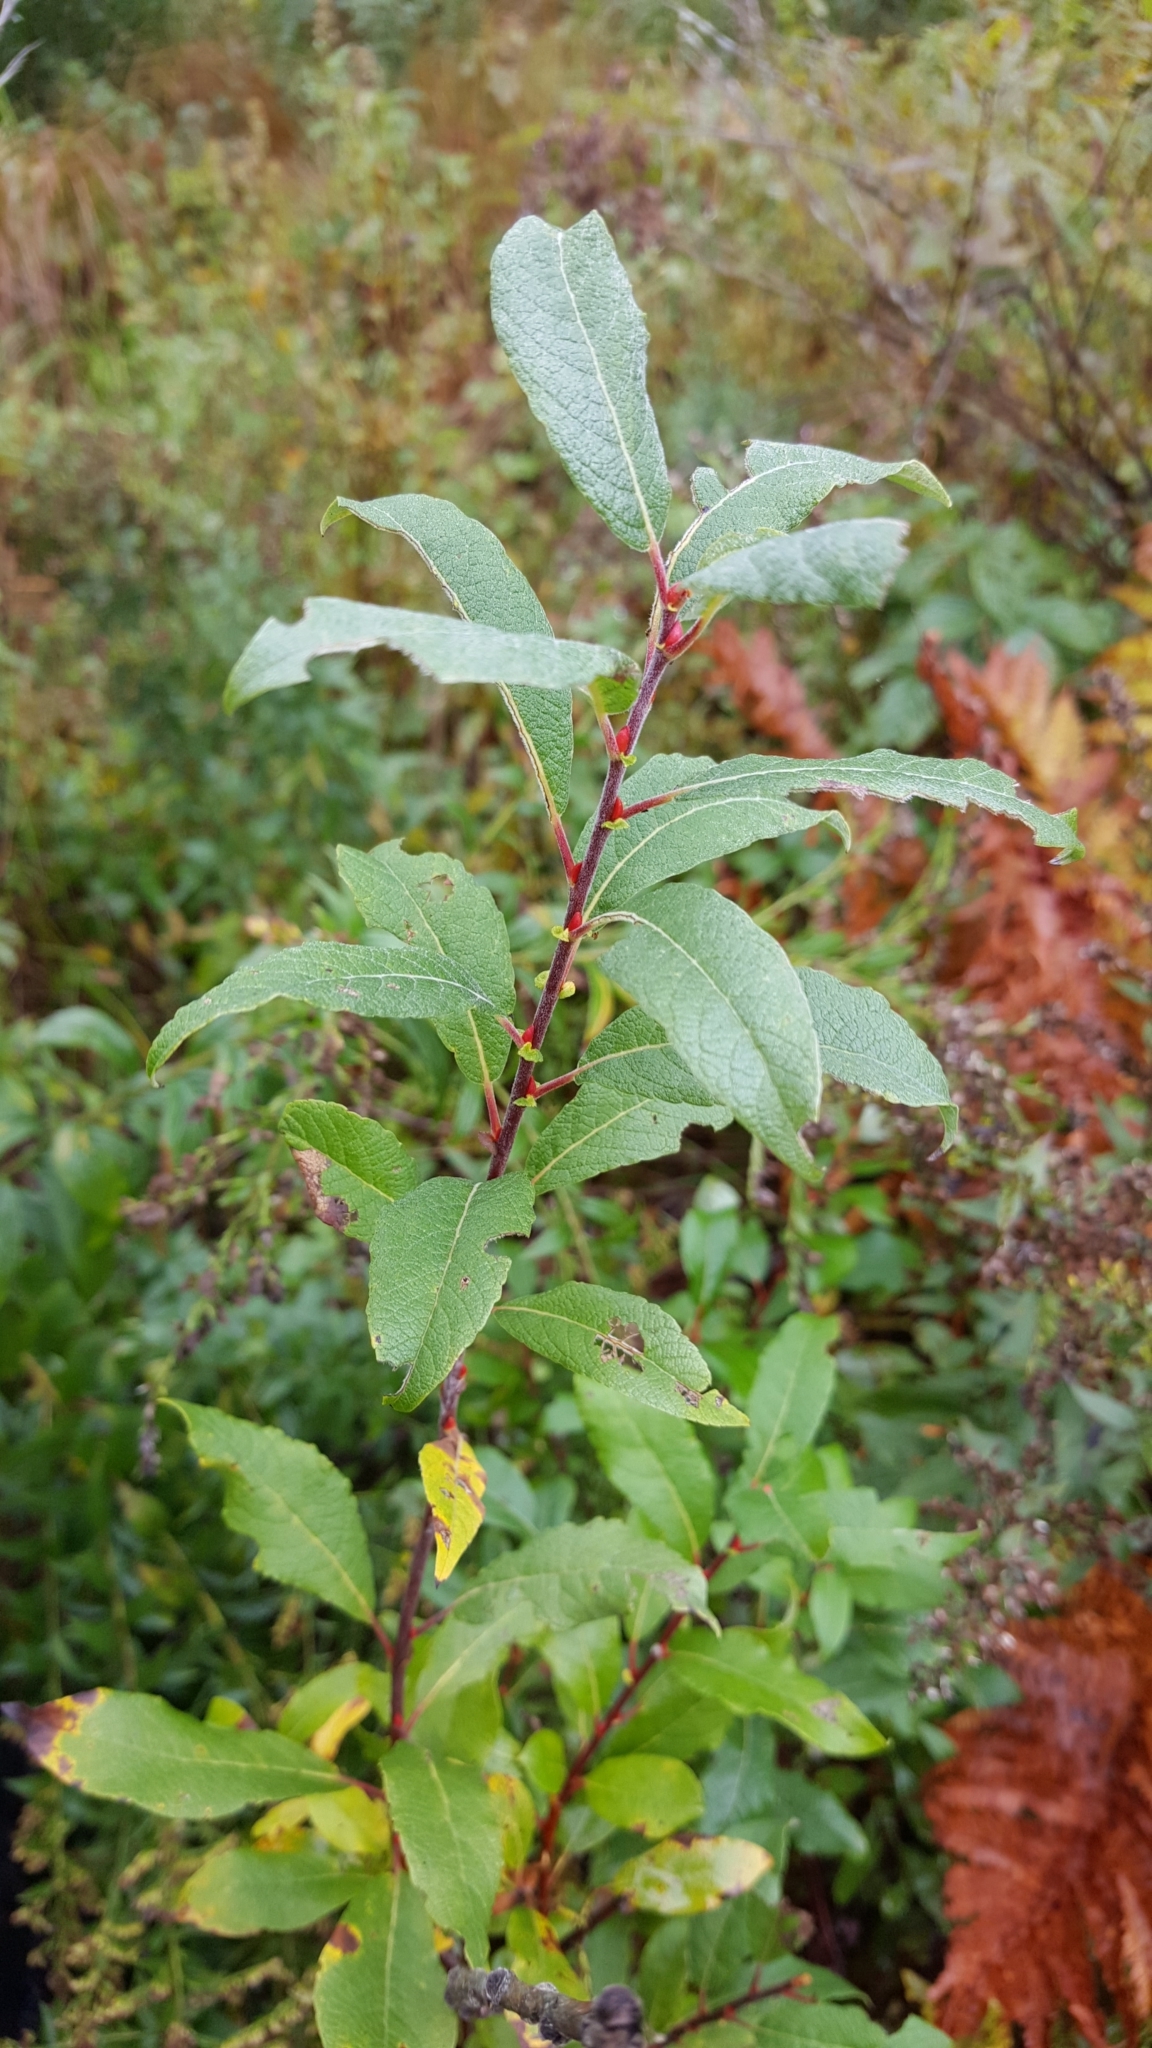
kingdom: Plantae
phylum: Tracheophyta
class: Magnoliopsida
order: Malpighiales
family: Salicaceae
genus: Salix
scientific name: Salix bebbiana
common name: Bebb's willow
